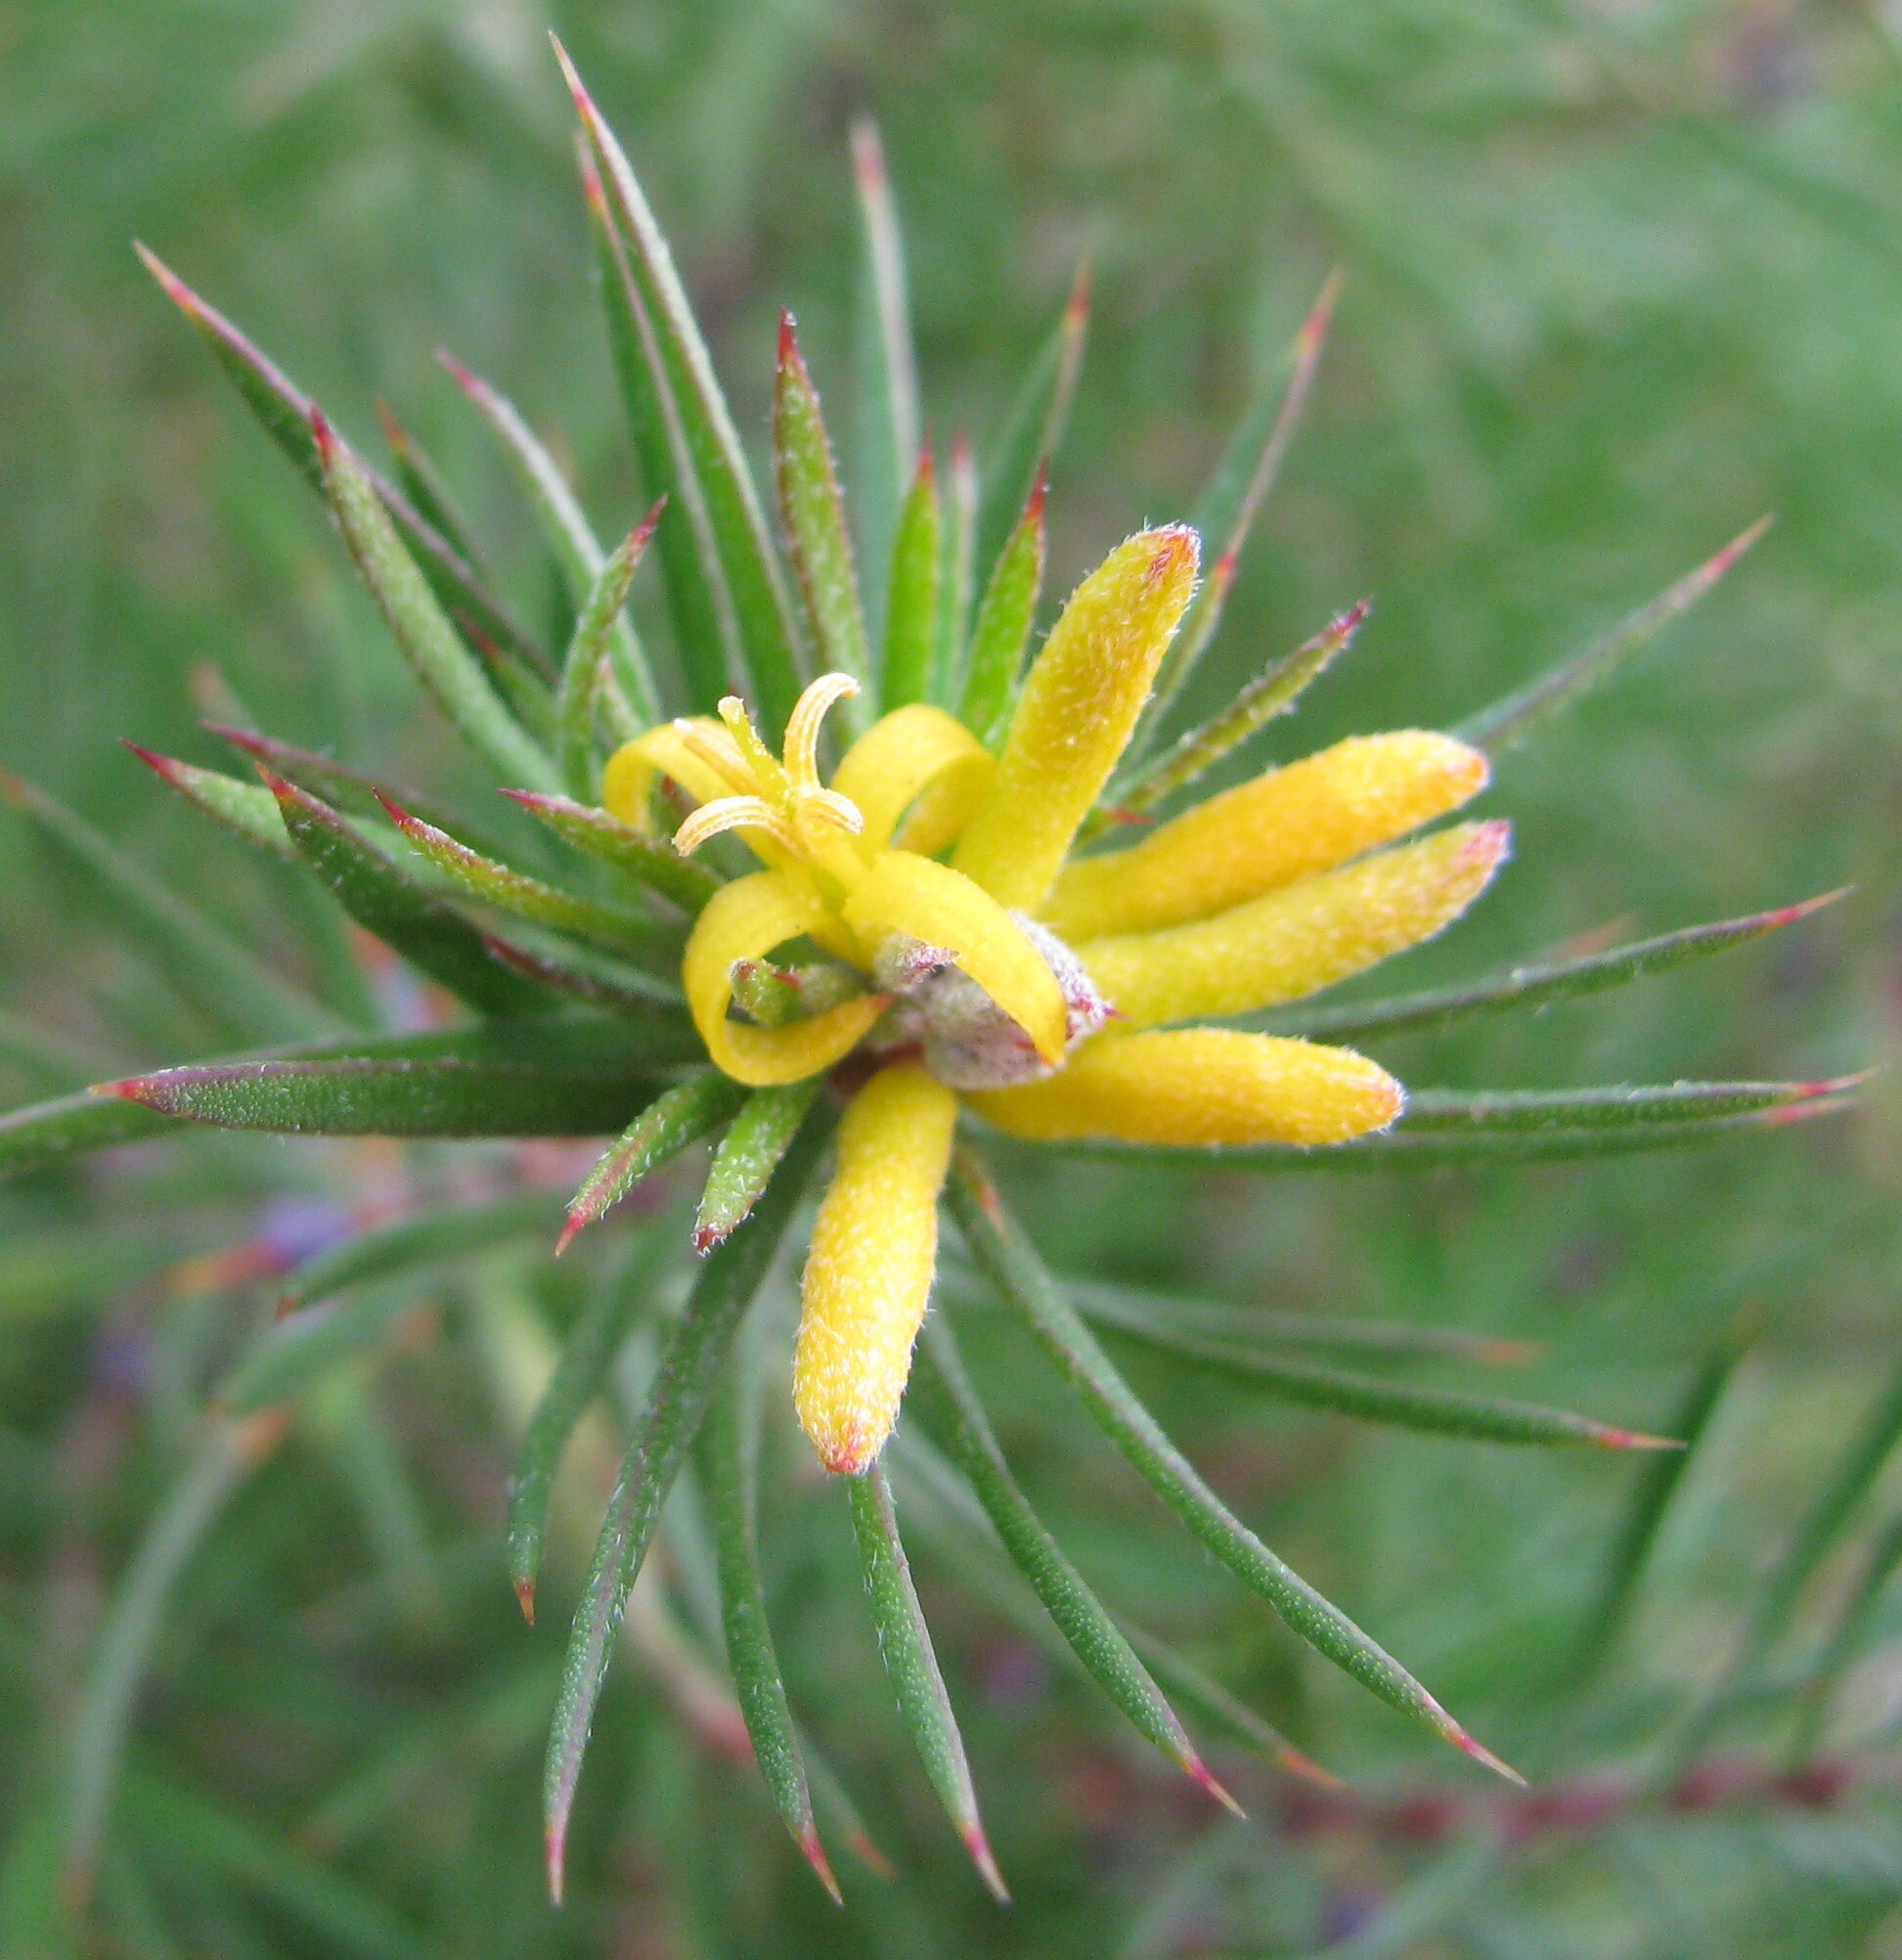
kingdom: Plantae
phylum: Tracheophyta
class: Magnoliopsida
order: Proteales
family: Proteaceae
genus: Persoonia
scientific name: Persoonia juniperina
